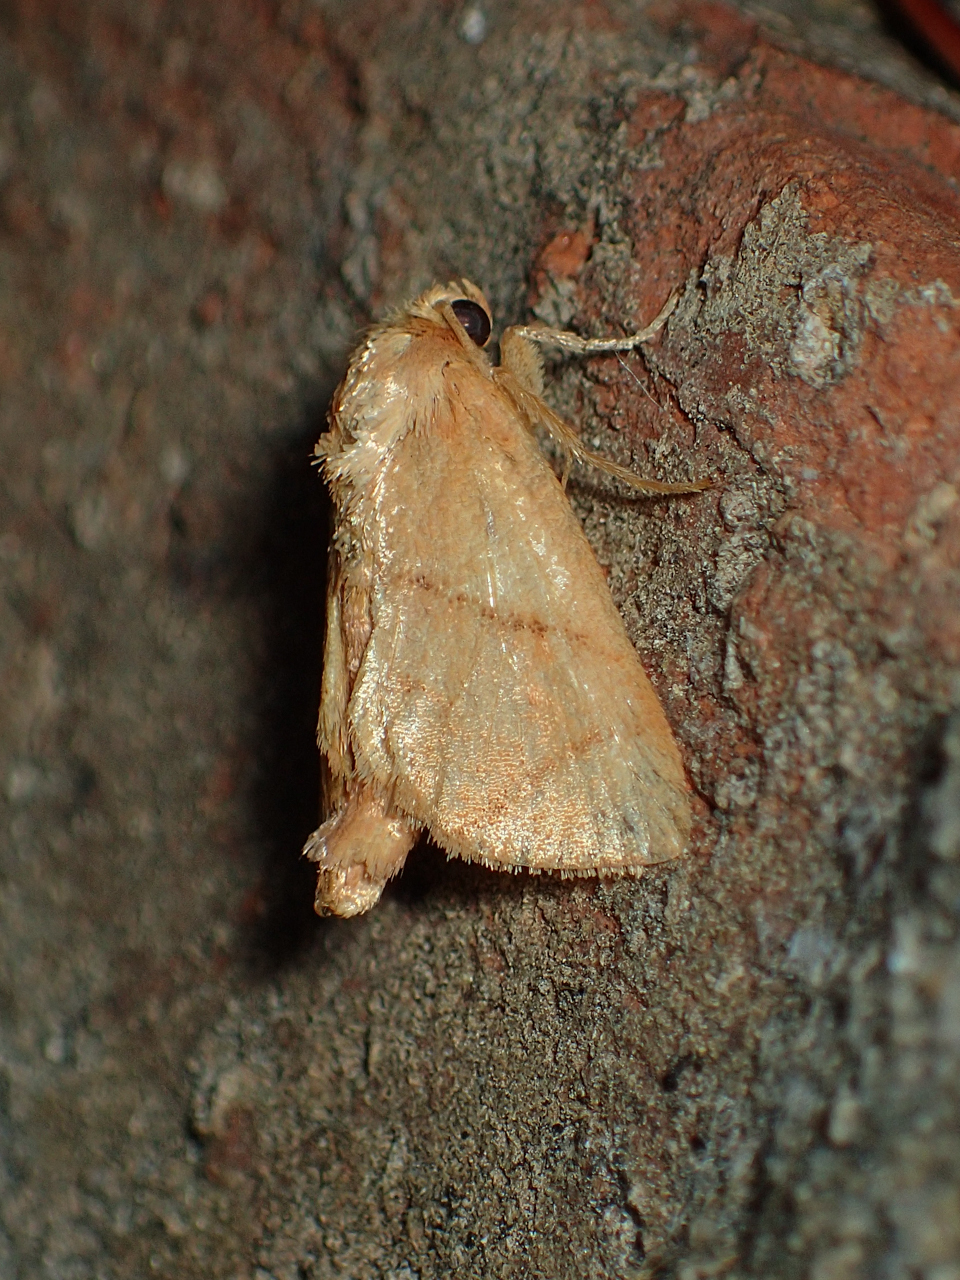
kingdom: Animalia
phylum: Arthropoda
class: Insecta
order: Lepidoptera
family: Limacodidae
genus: Apoda
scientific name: Apoda y-inversa
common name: Yellow-collared slug moth
